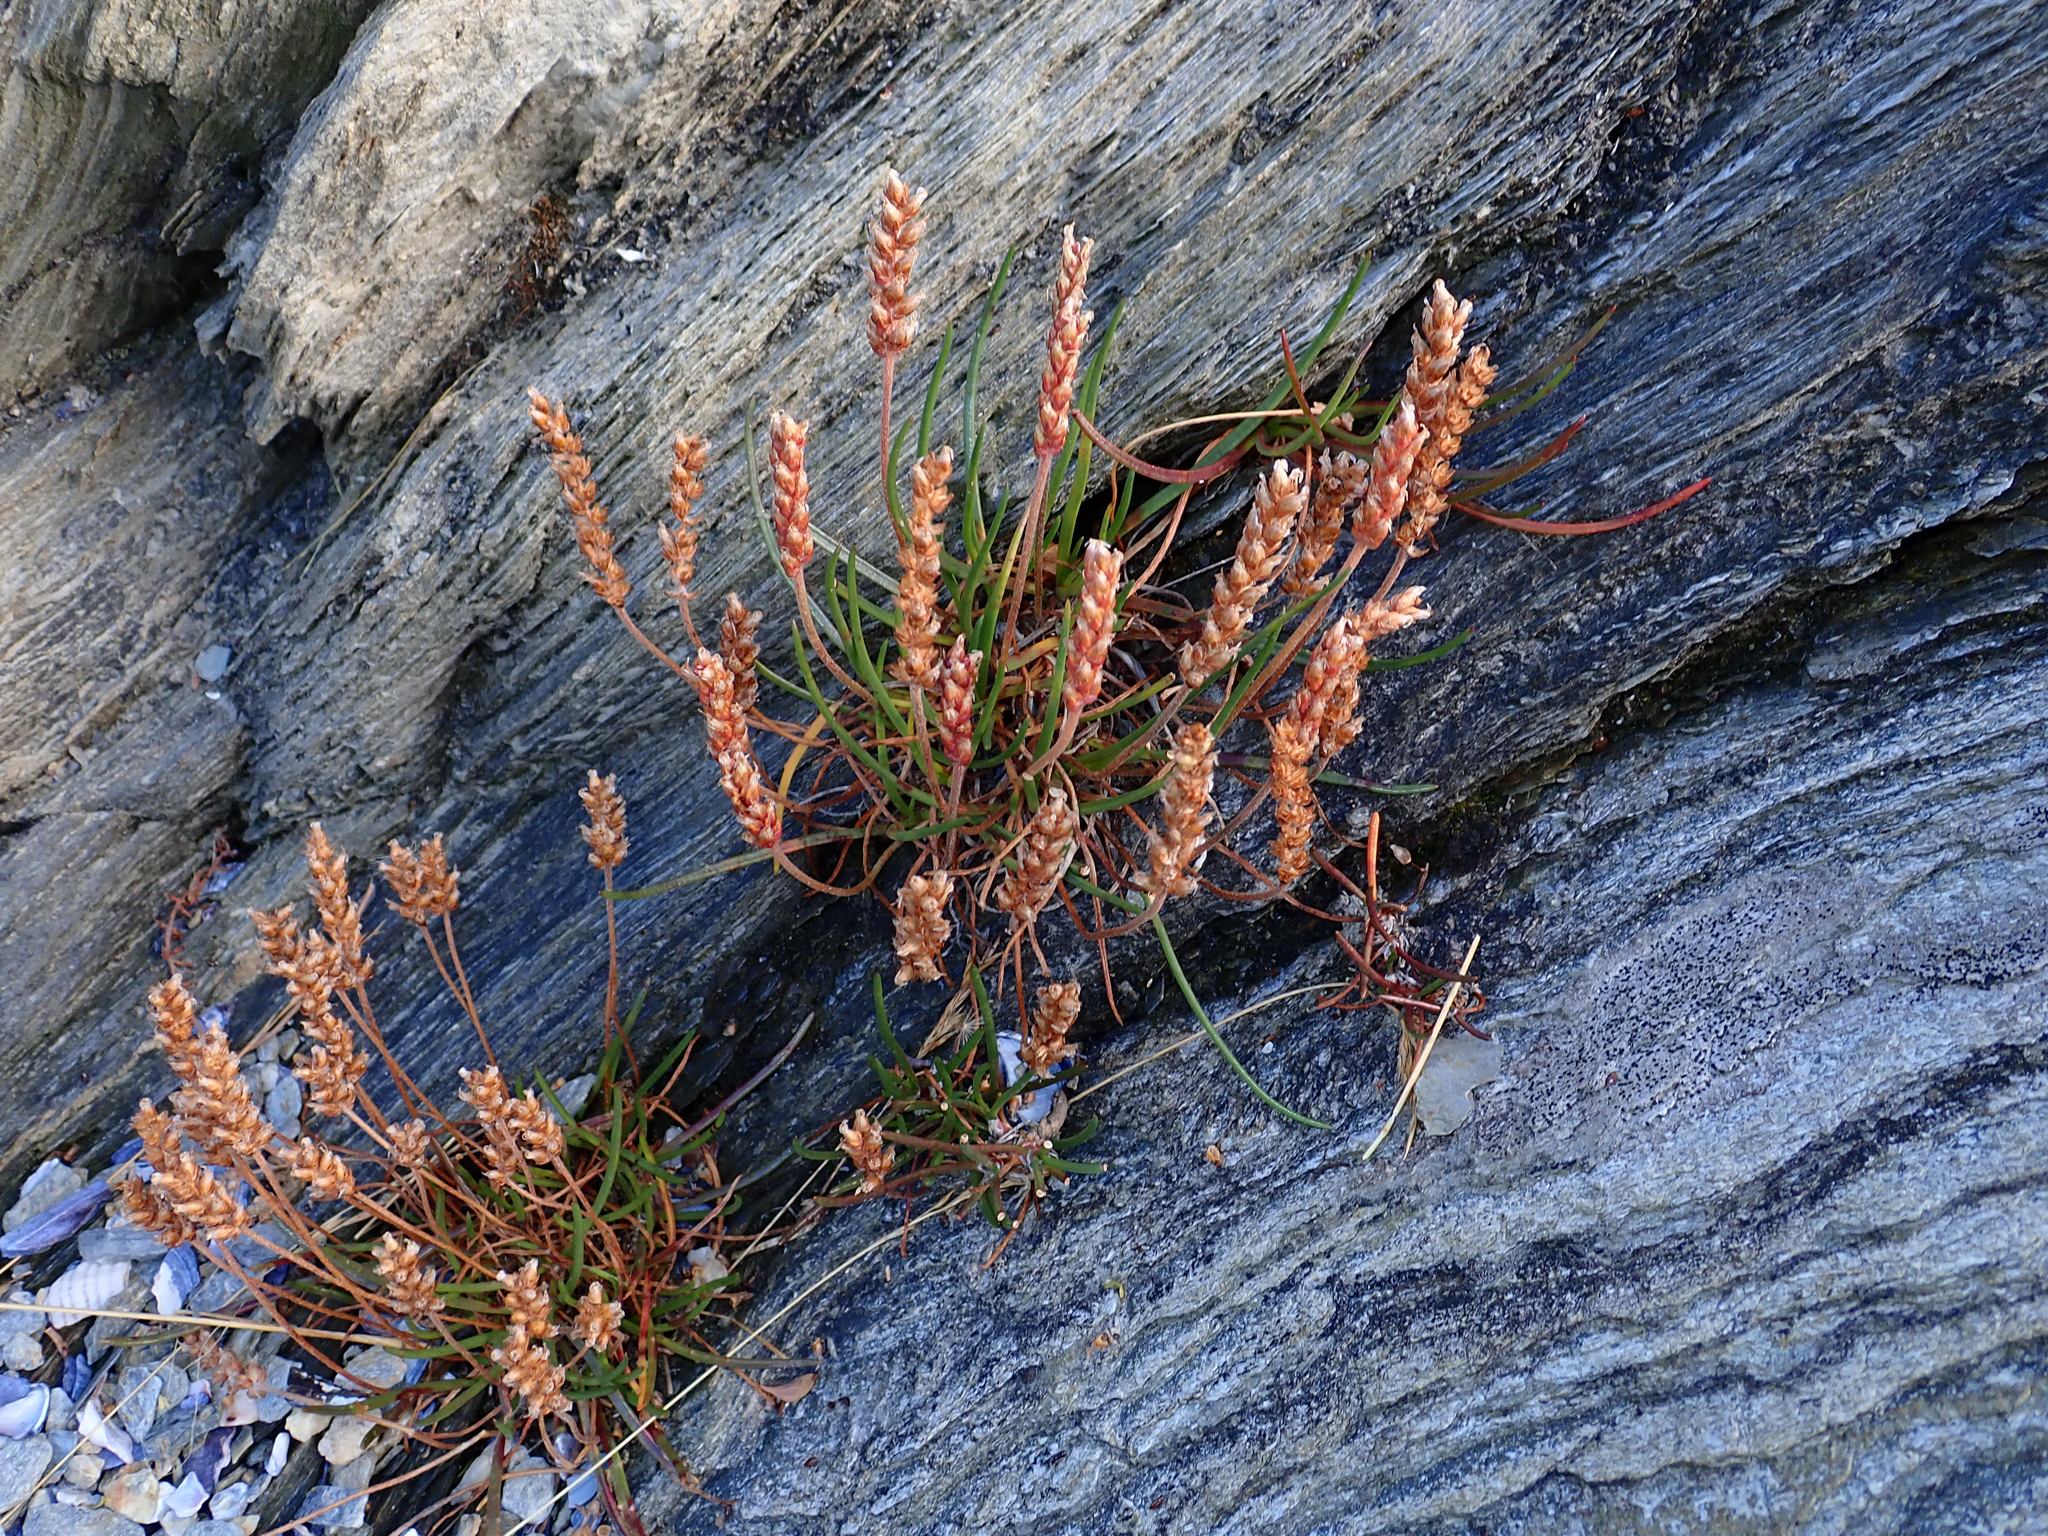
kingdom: Plantae
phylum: Tracheophyta
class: Magnoliopsida
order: Lamiales
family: Plantaginaceae
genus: Plantago
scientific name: Plantago maritima
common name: Sea plantain
